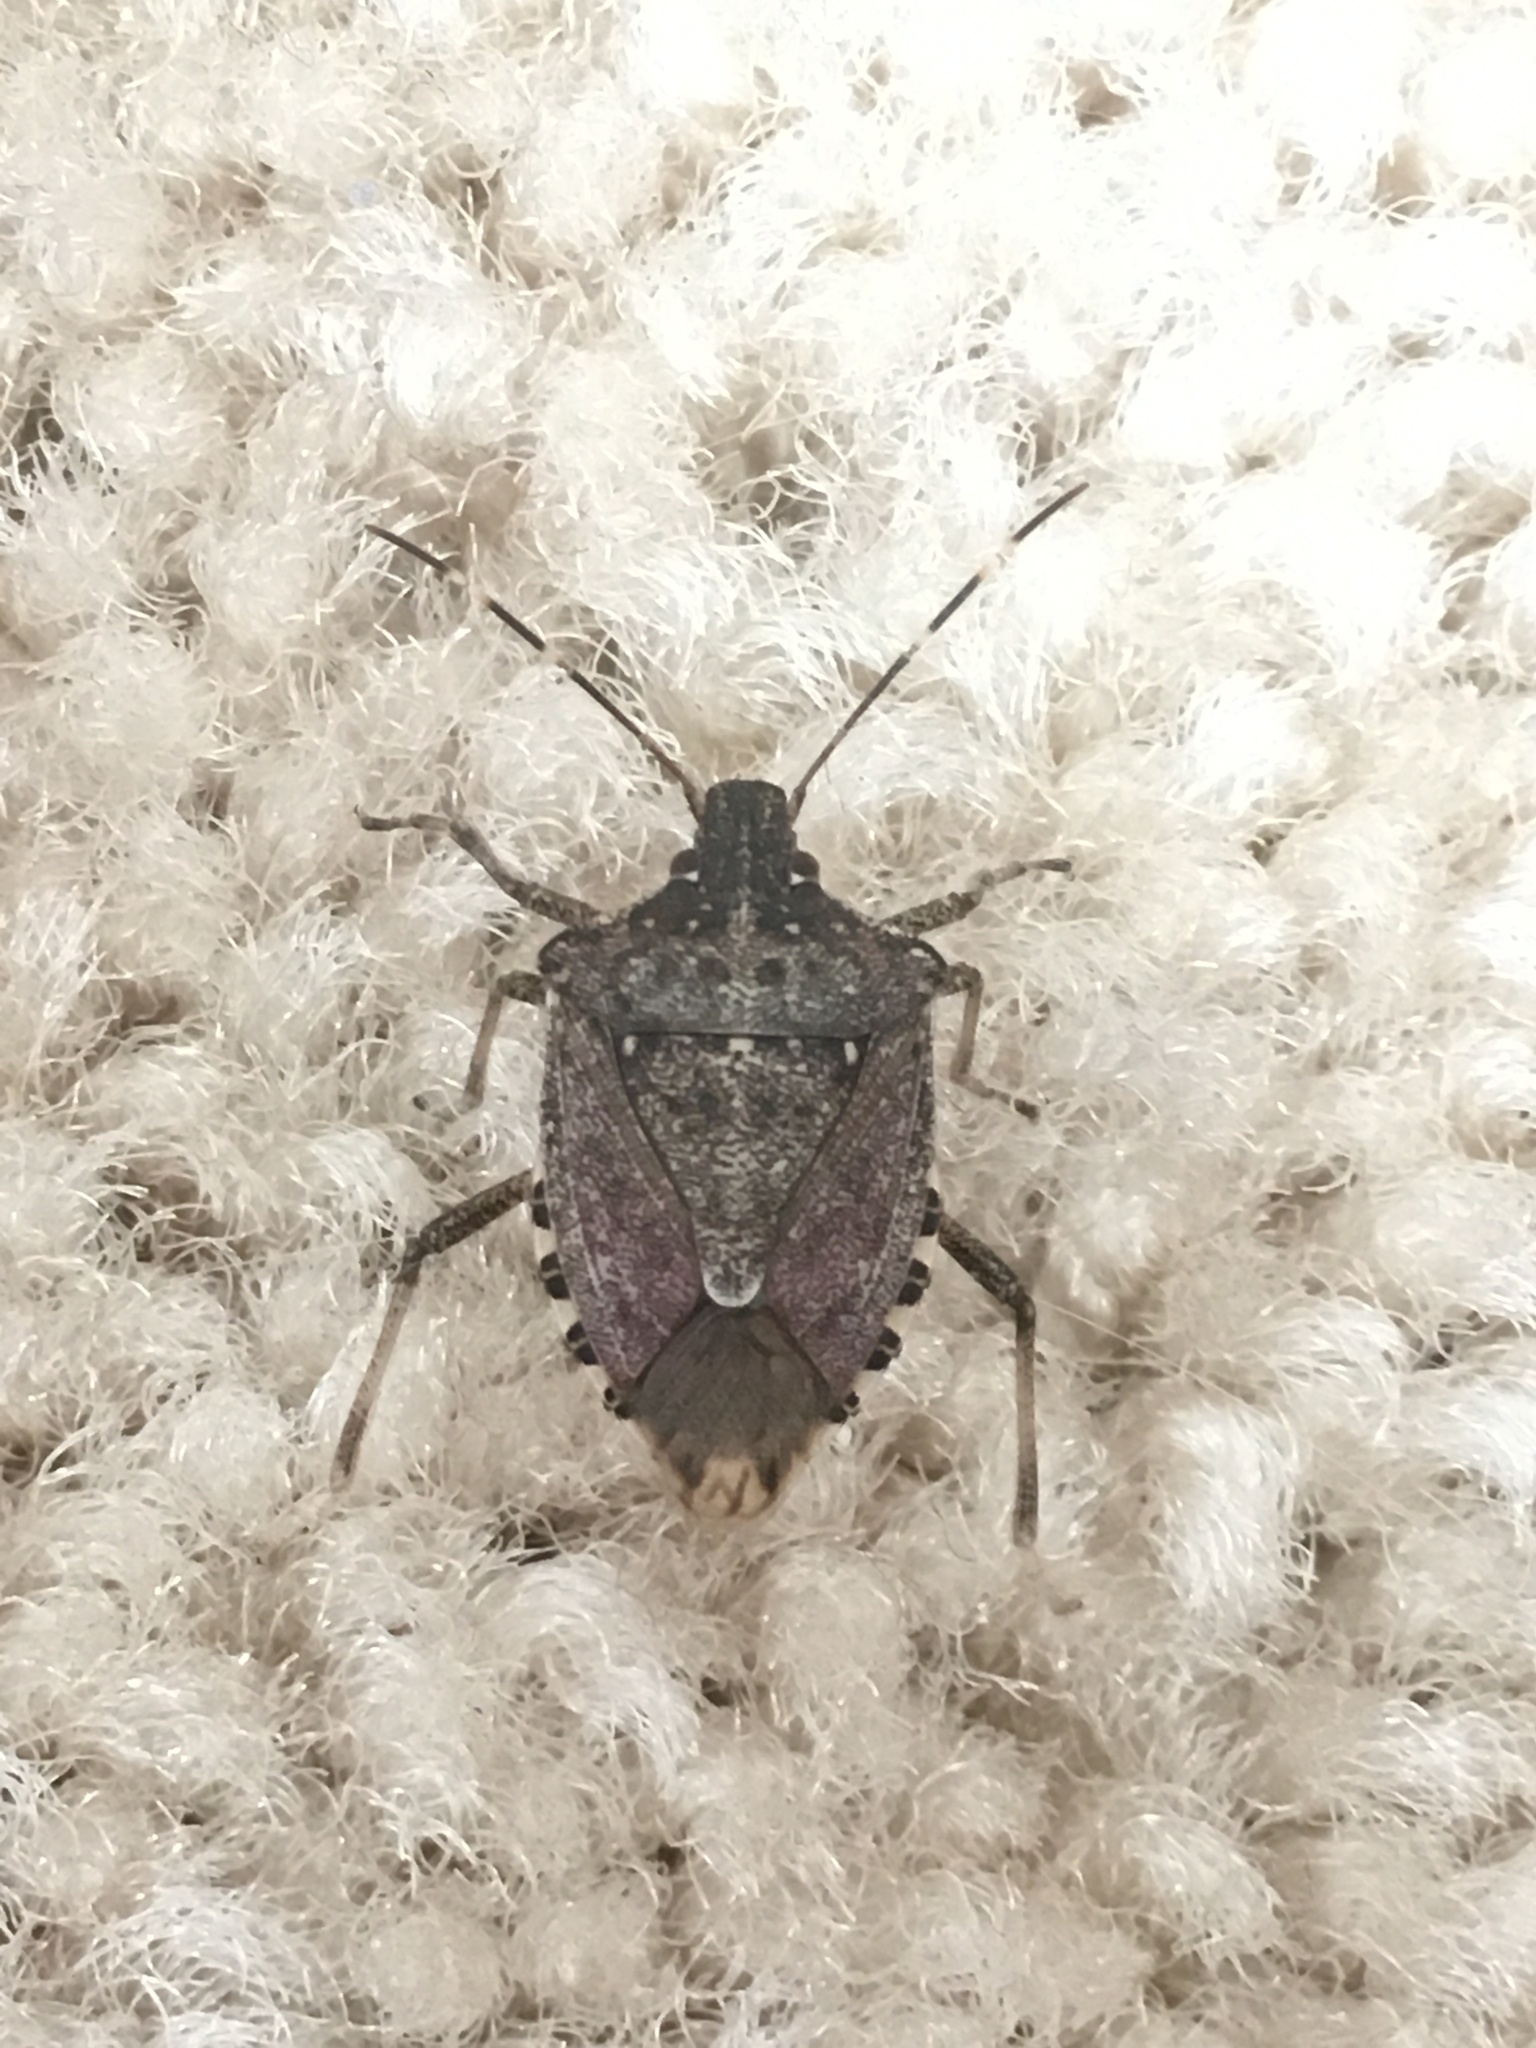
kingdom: Animalia
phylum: Arthropoda
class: Insecta
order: Hemiptera
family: Pentatomidae
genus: Halyomorpha
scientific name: Halyomorpha halys
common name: Brown marmorated stink bug
